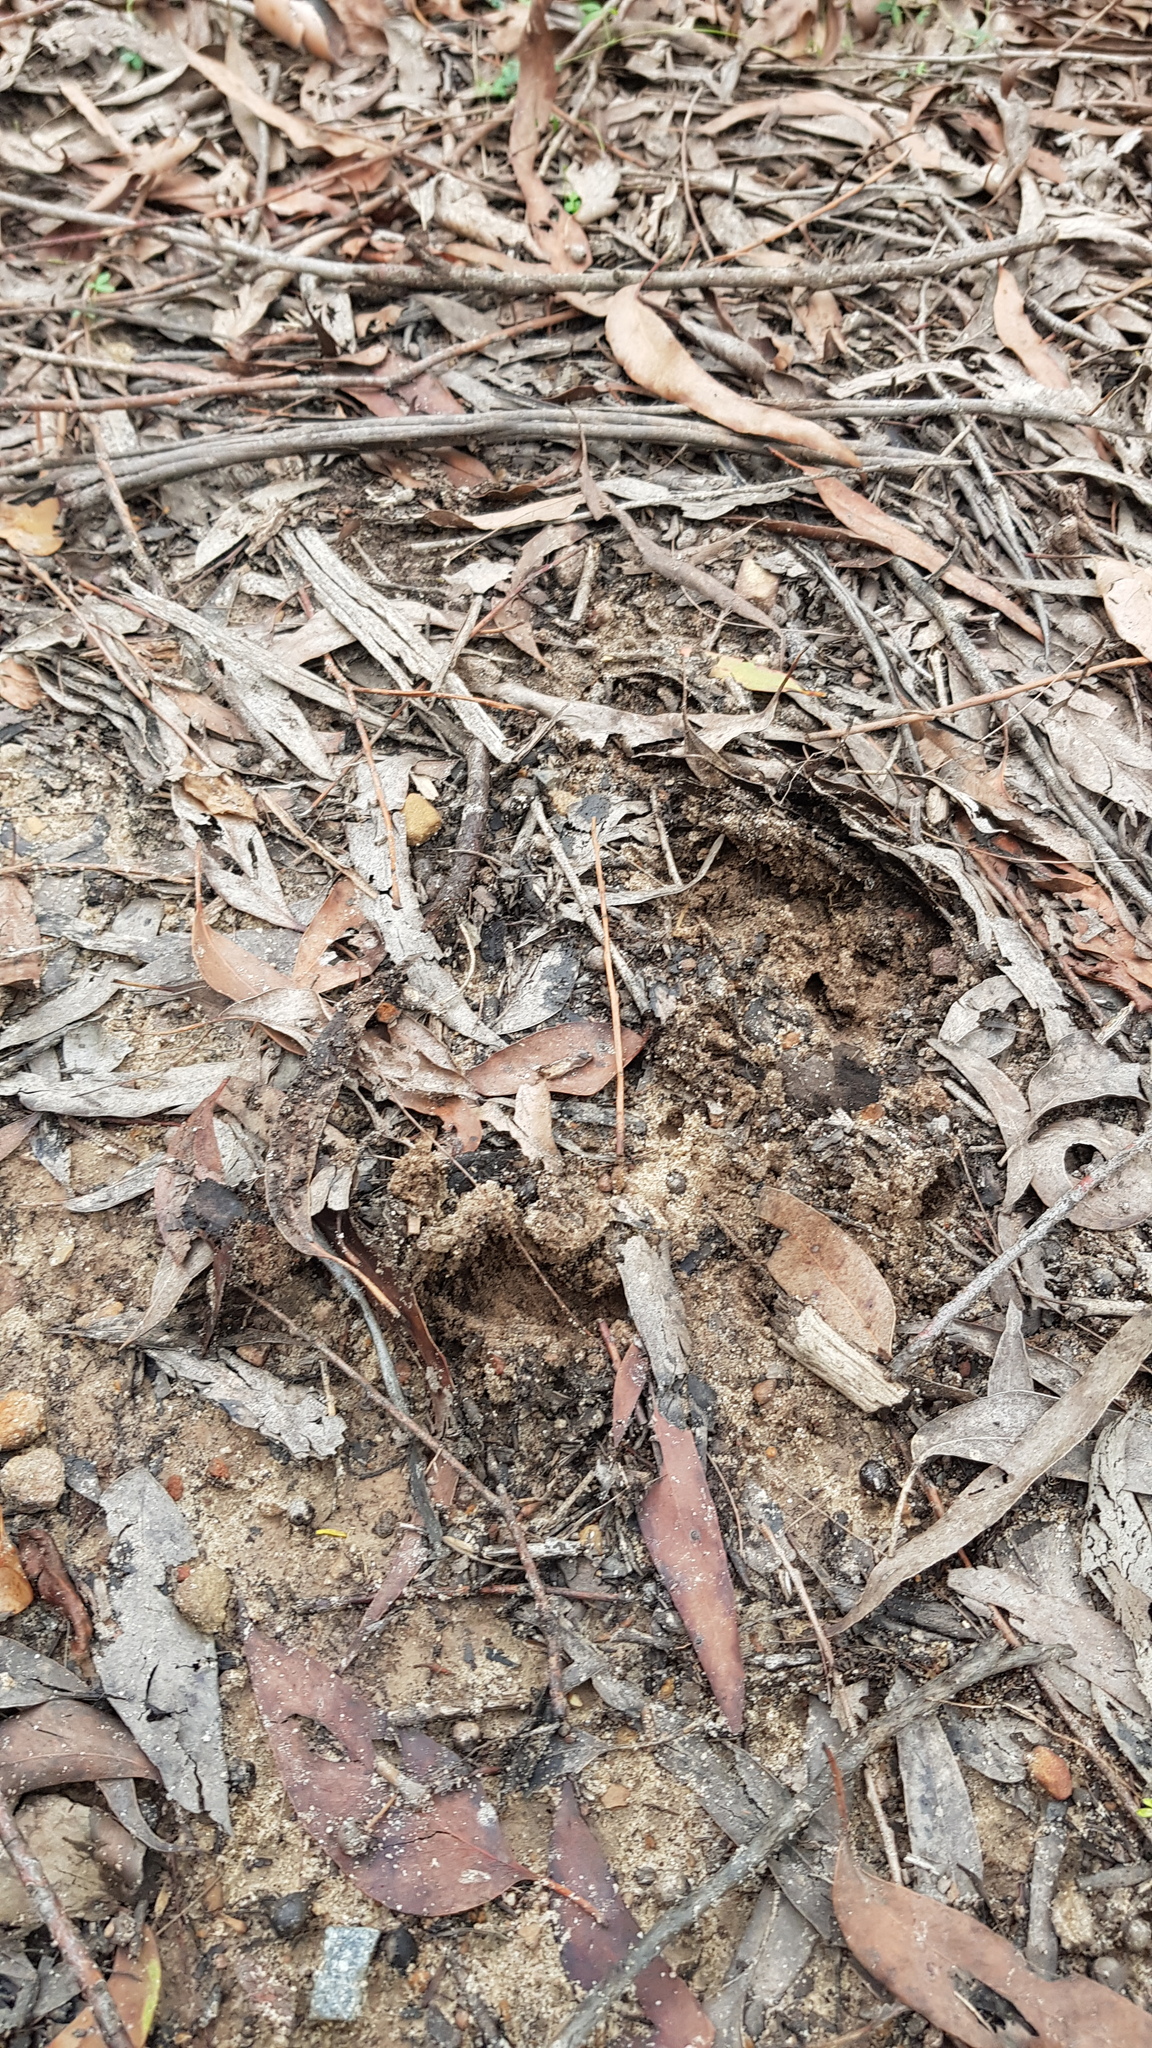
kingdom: Animalia
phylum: Chordata
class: Mammalia
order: Monotremata
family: Tachyglossidae
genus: Tachyglossus
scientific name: Tachyglossus aculeatus
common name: Short-beaked echidna
